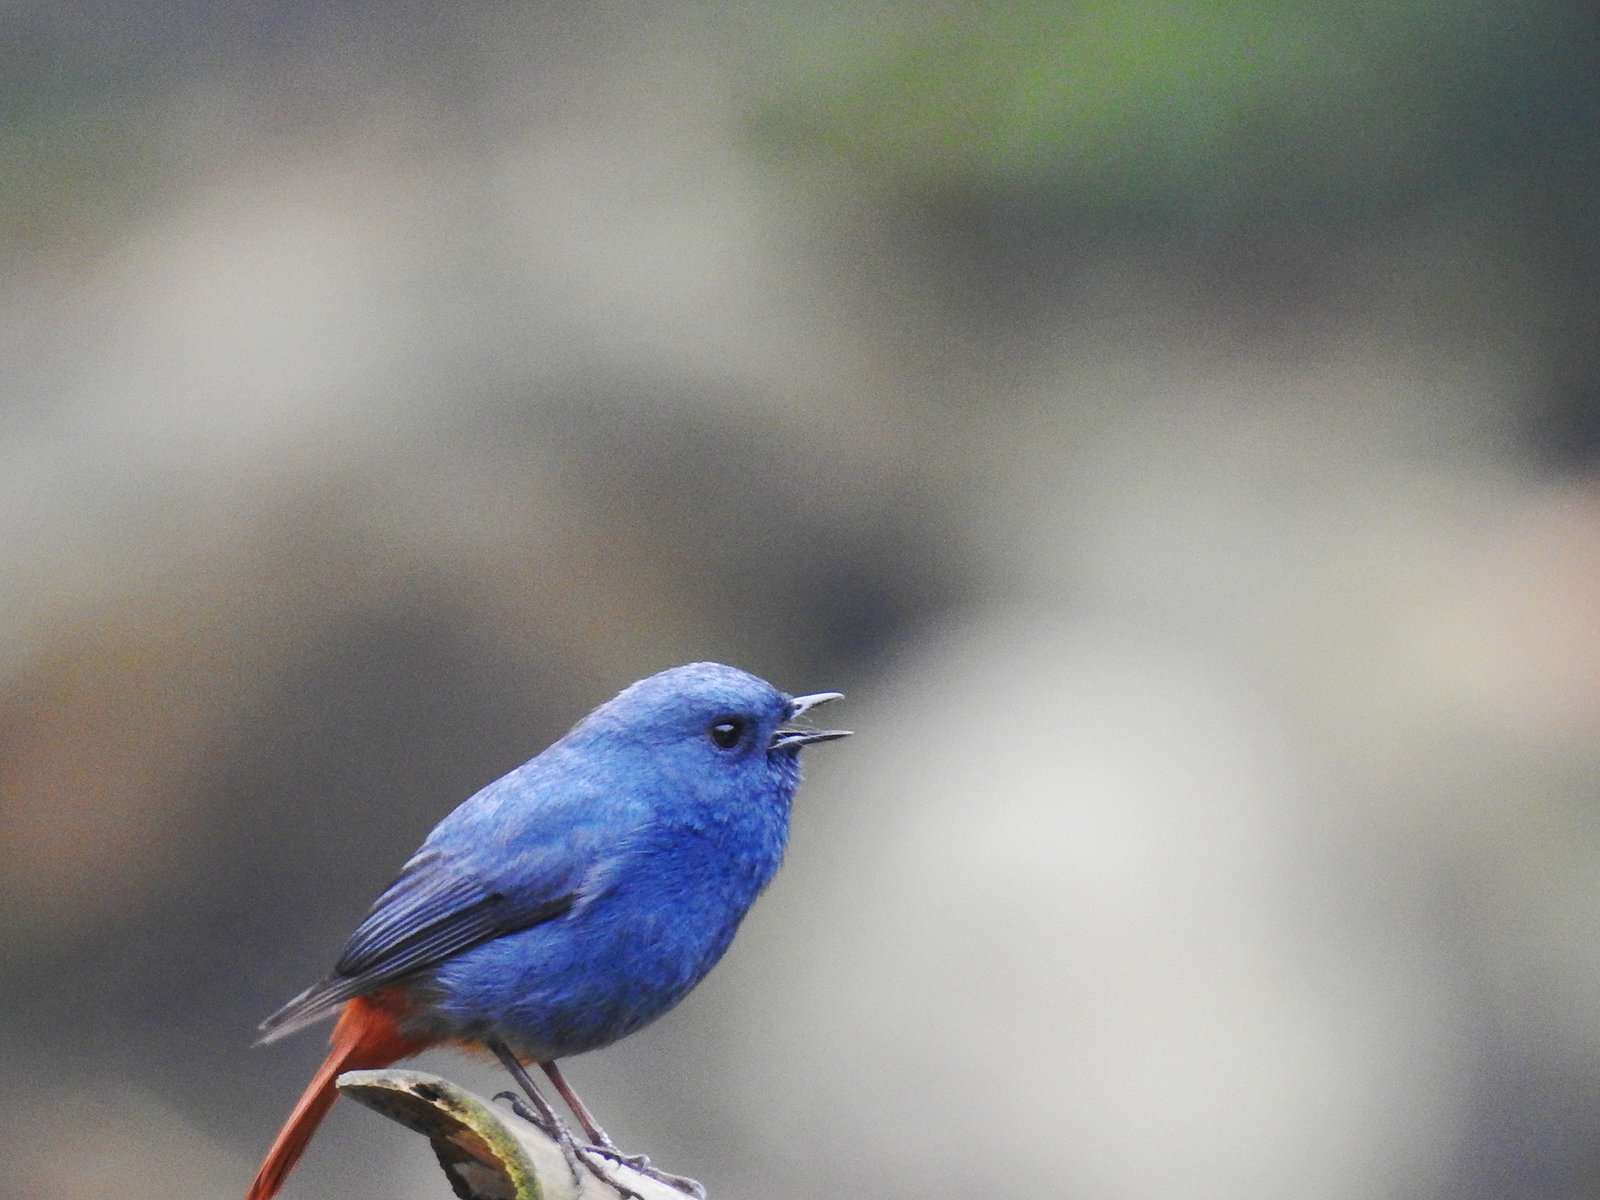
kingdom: Animalia
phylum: Chordata
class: Aves
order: Passeriformes
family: Muscicapidae
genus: Phoenicurus
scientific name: Phoenicurus fuliginosus
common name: Plumbeous water redstart
